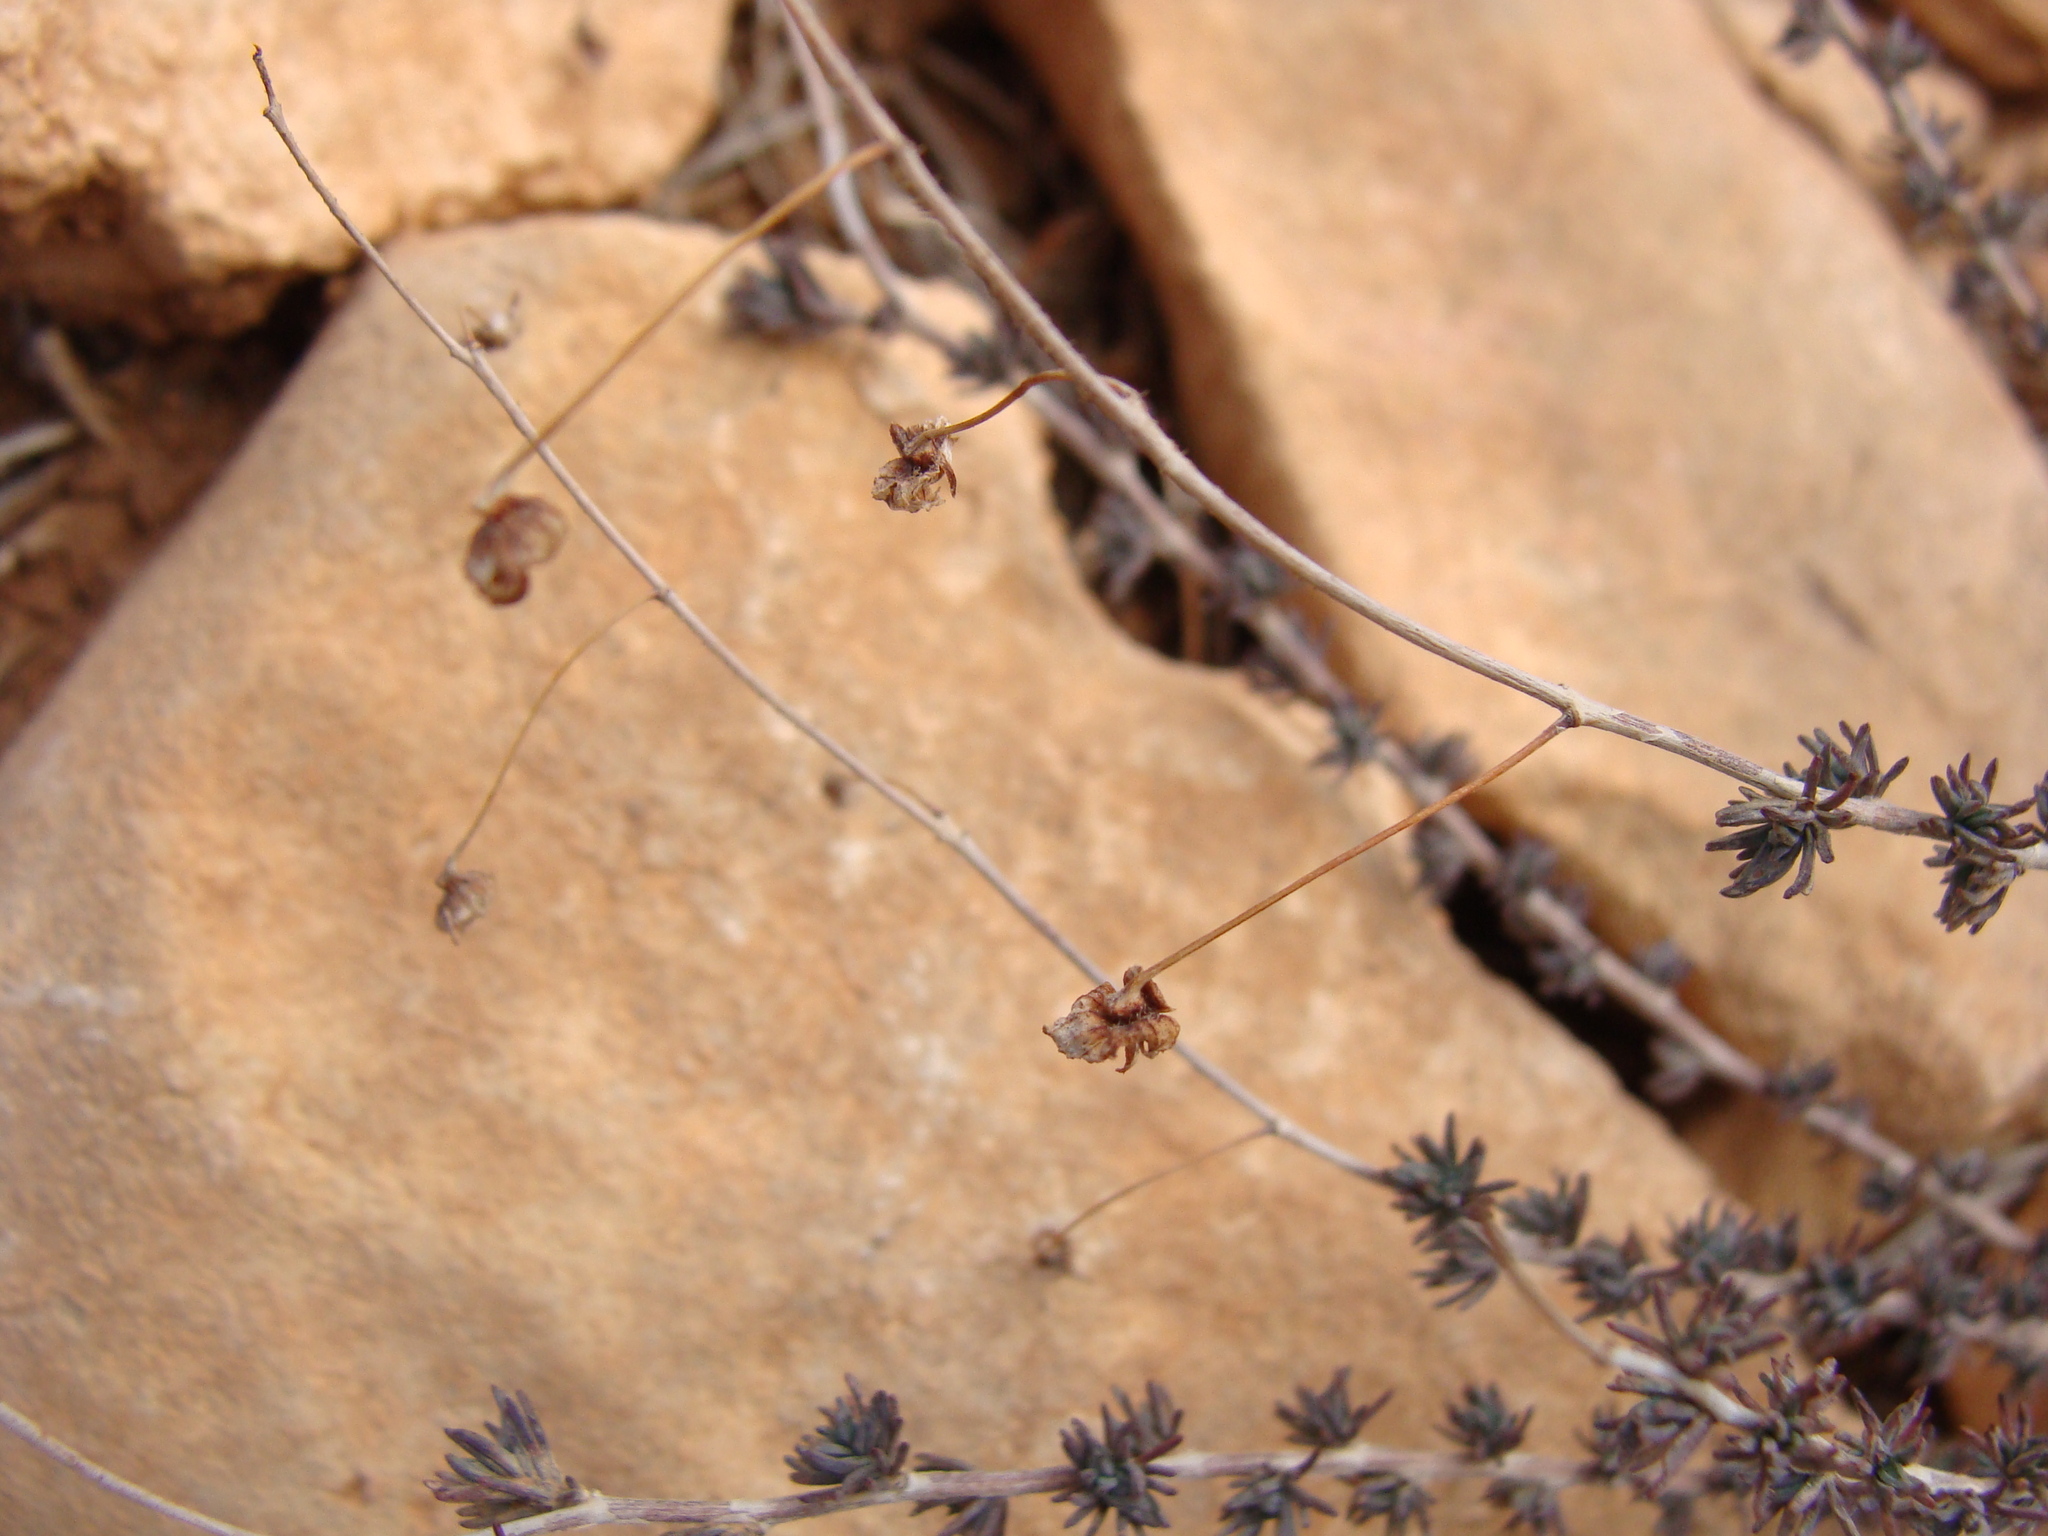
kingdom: Plantae
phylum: Tracheophyta
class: Magnoliopsida
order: Malvales
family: Cistaceae
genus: Fumana
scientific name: Fumana laevipes
